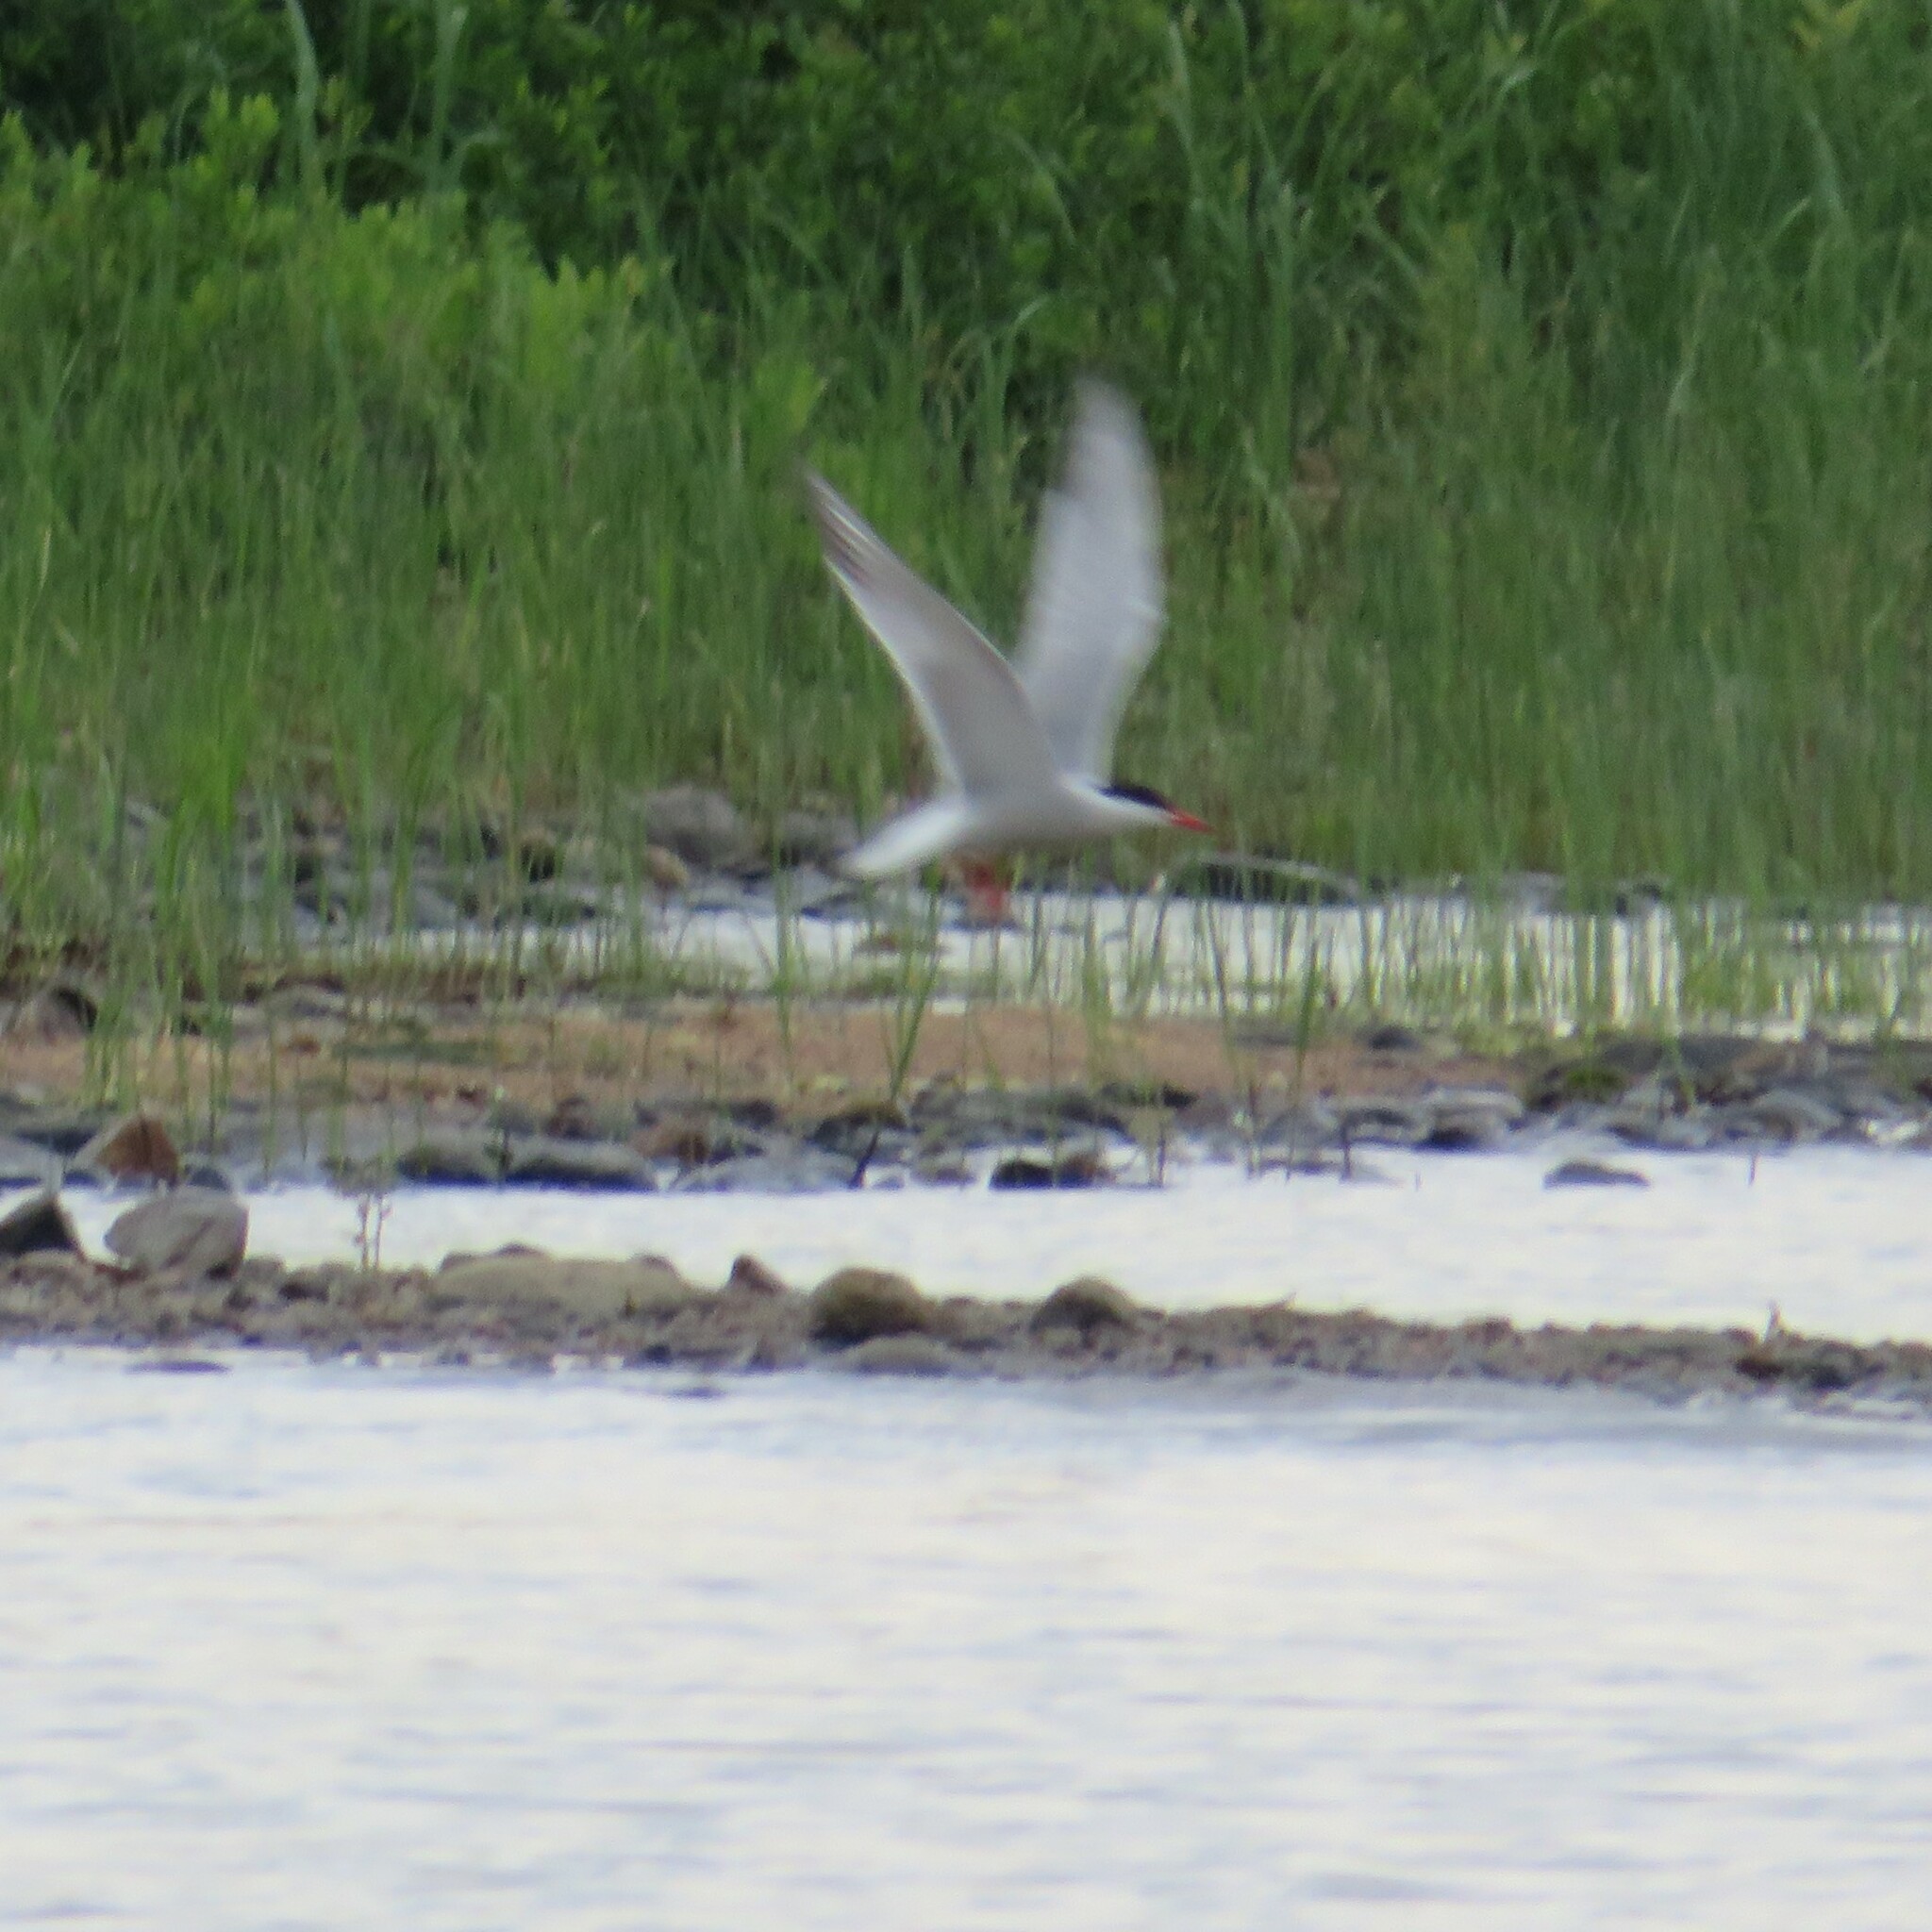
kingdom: Animalia
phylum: Chordata
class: Aves
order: Charadriiformes
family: Laridae
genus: Sterna
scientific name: Sterna hirundo
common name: Common tern
